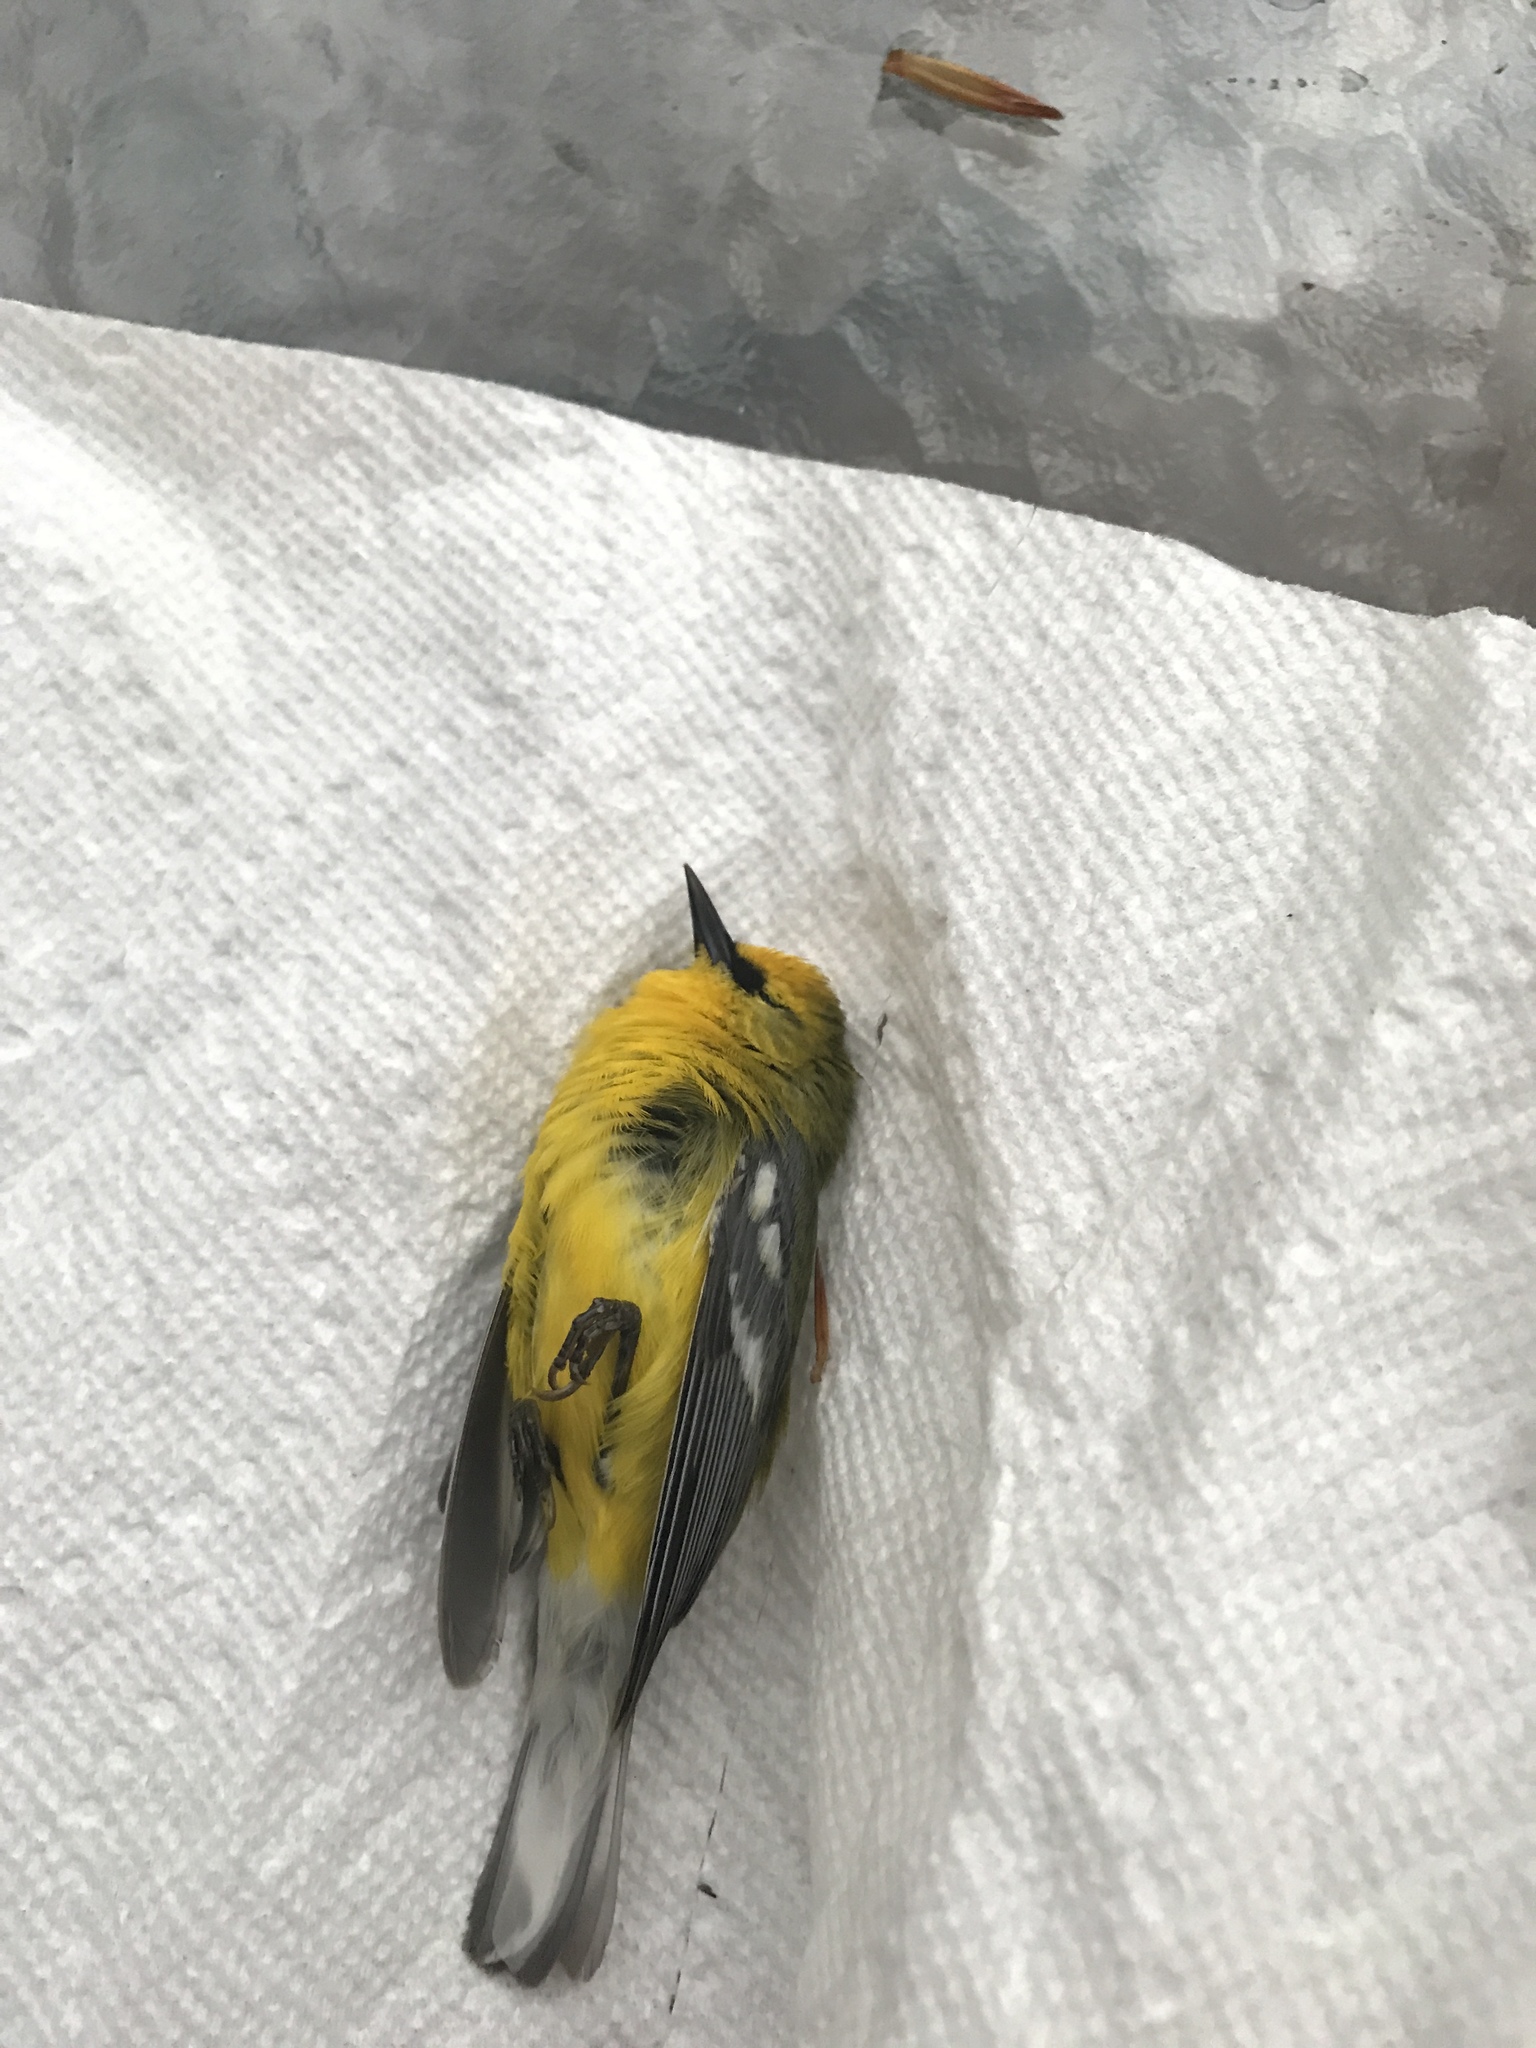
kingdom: Animalia
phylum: Chordata
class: Aves
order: Passeriformes
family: Parulidae
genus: Vermivora
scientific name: Vermivora cyanoptera
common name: Blue-winged warbler
